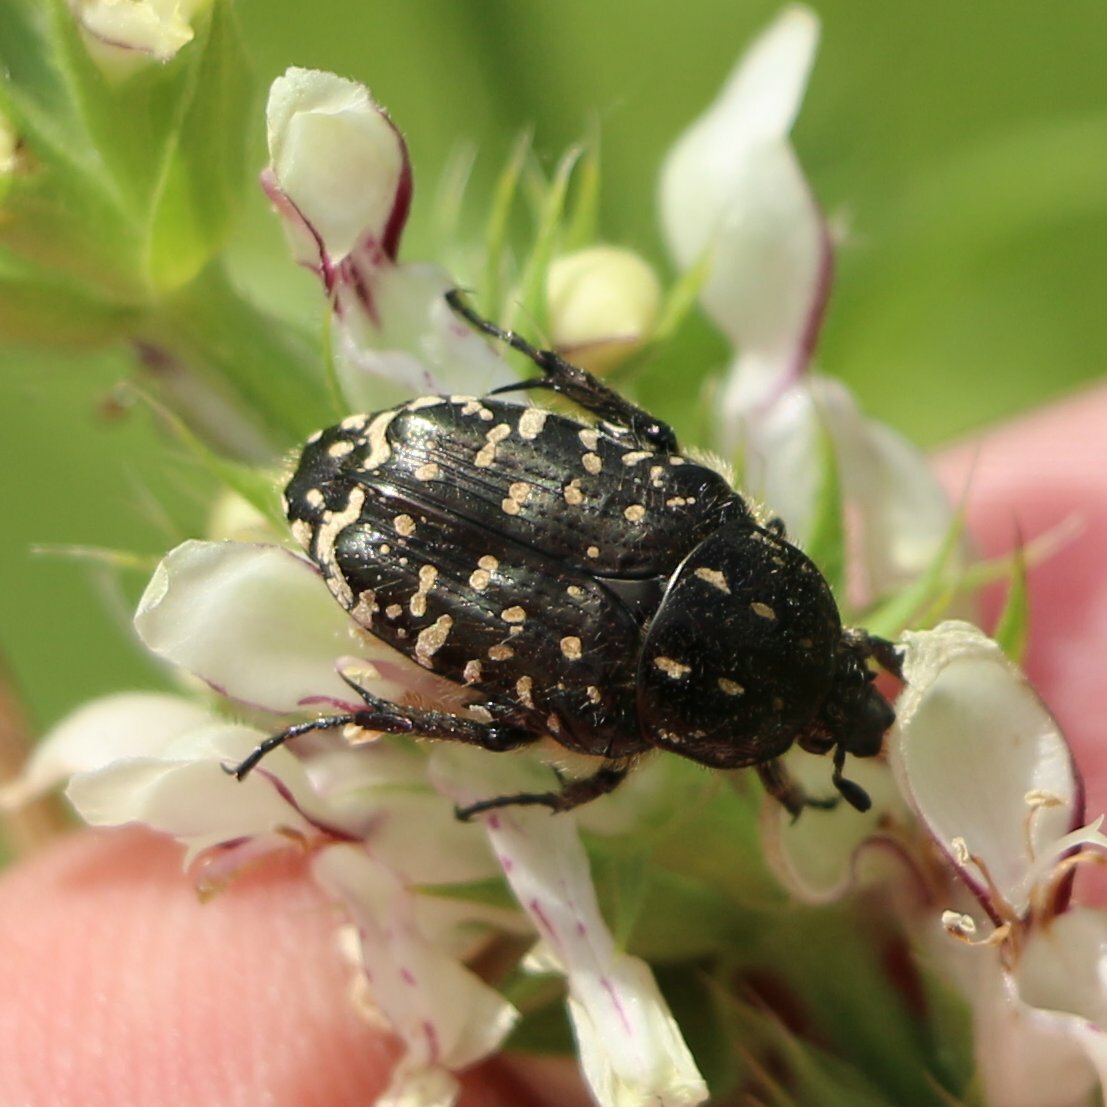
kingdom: Animalia
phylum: Arthropoda
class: Insecta
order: Coleoptera
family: Scarabaeidae
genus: Oxythyrea
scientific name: Oxythyrea funesta
